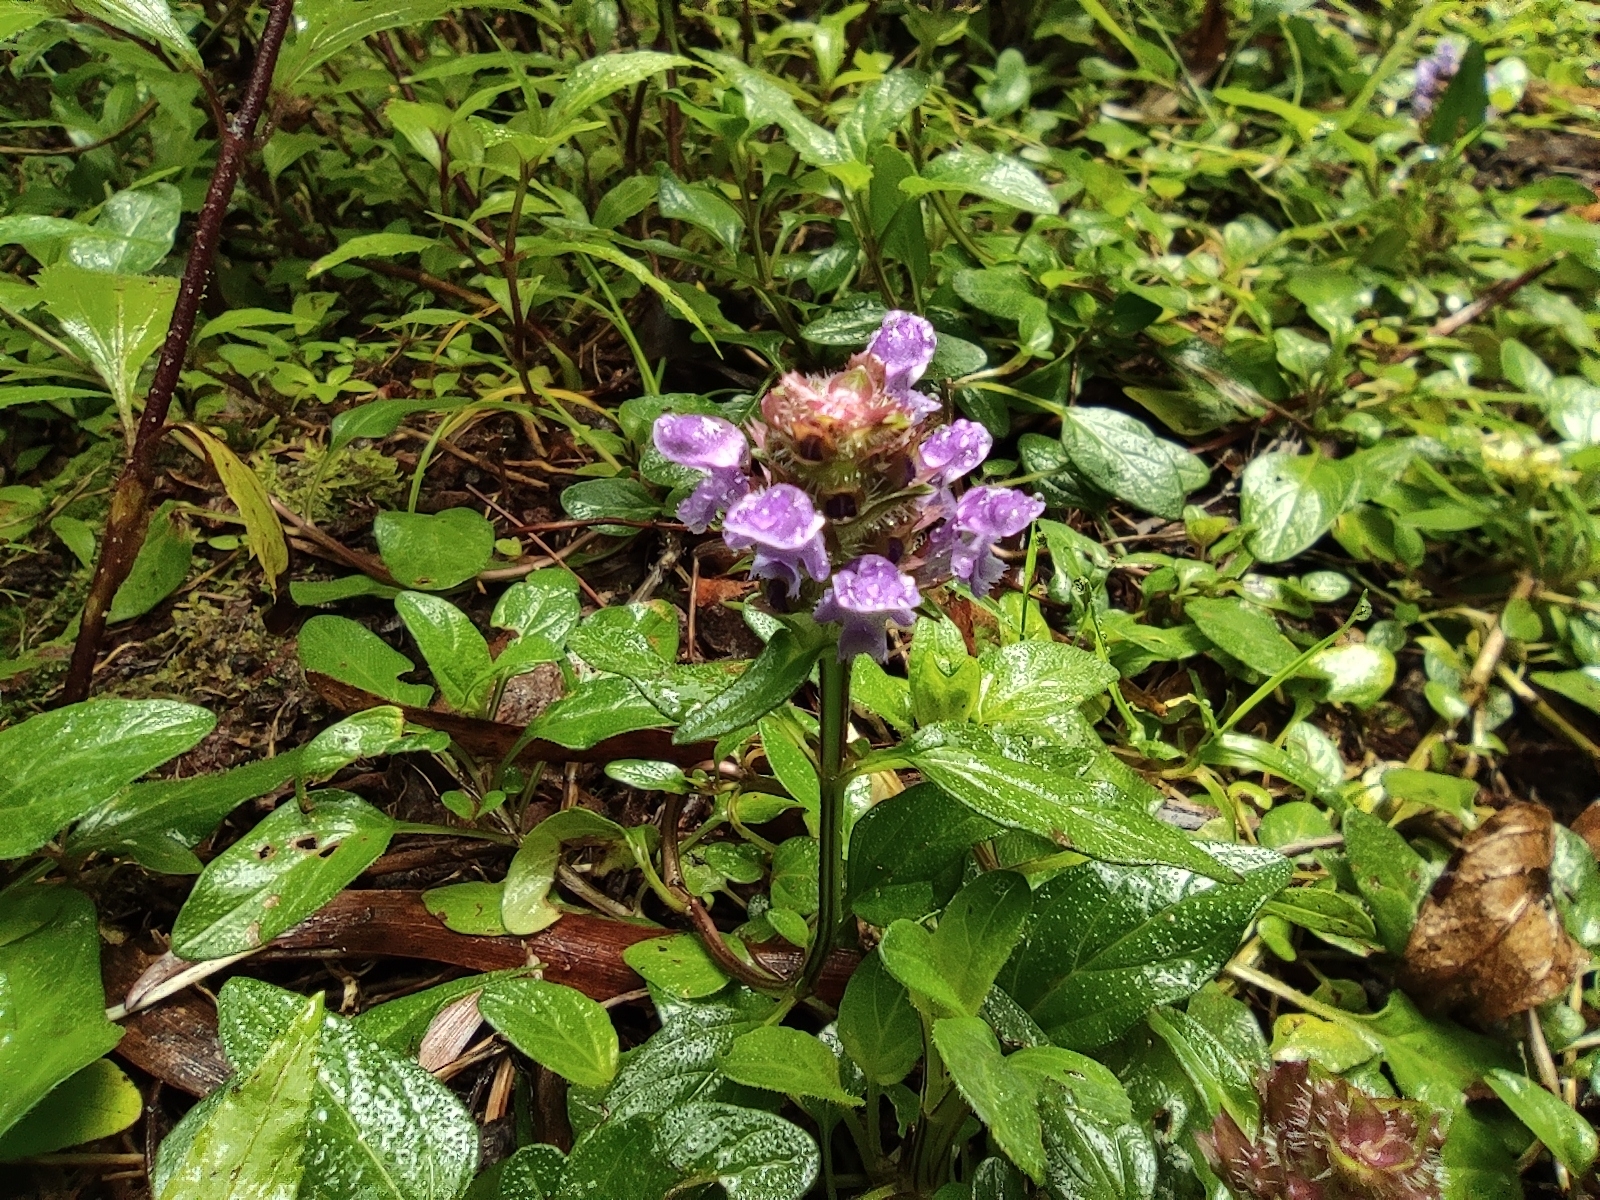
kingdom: Plantae
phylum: Tracheophyta
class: Magnoliopsida
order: Lamiales
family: Lamiaceae
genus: Prunella
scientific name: Prunella vulgaris
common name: Heal-all
